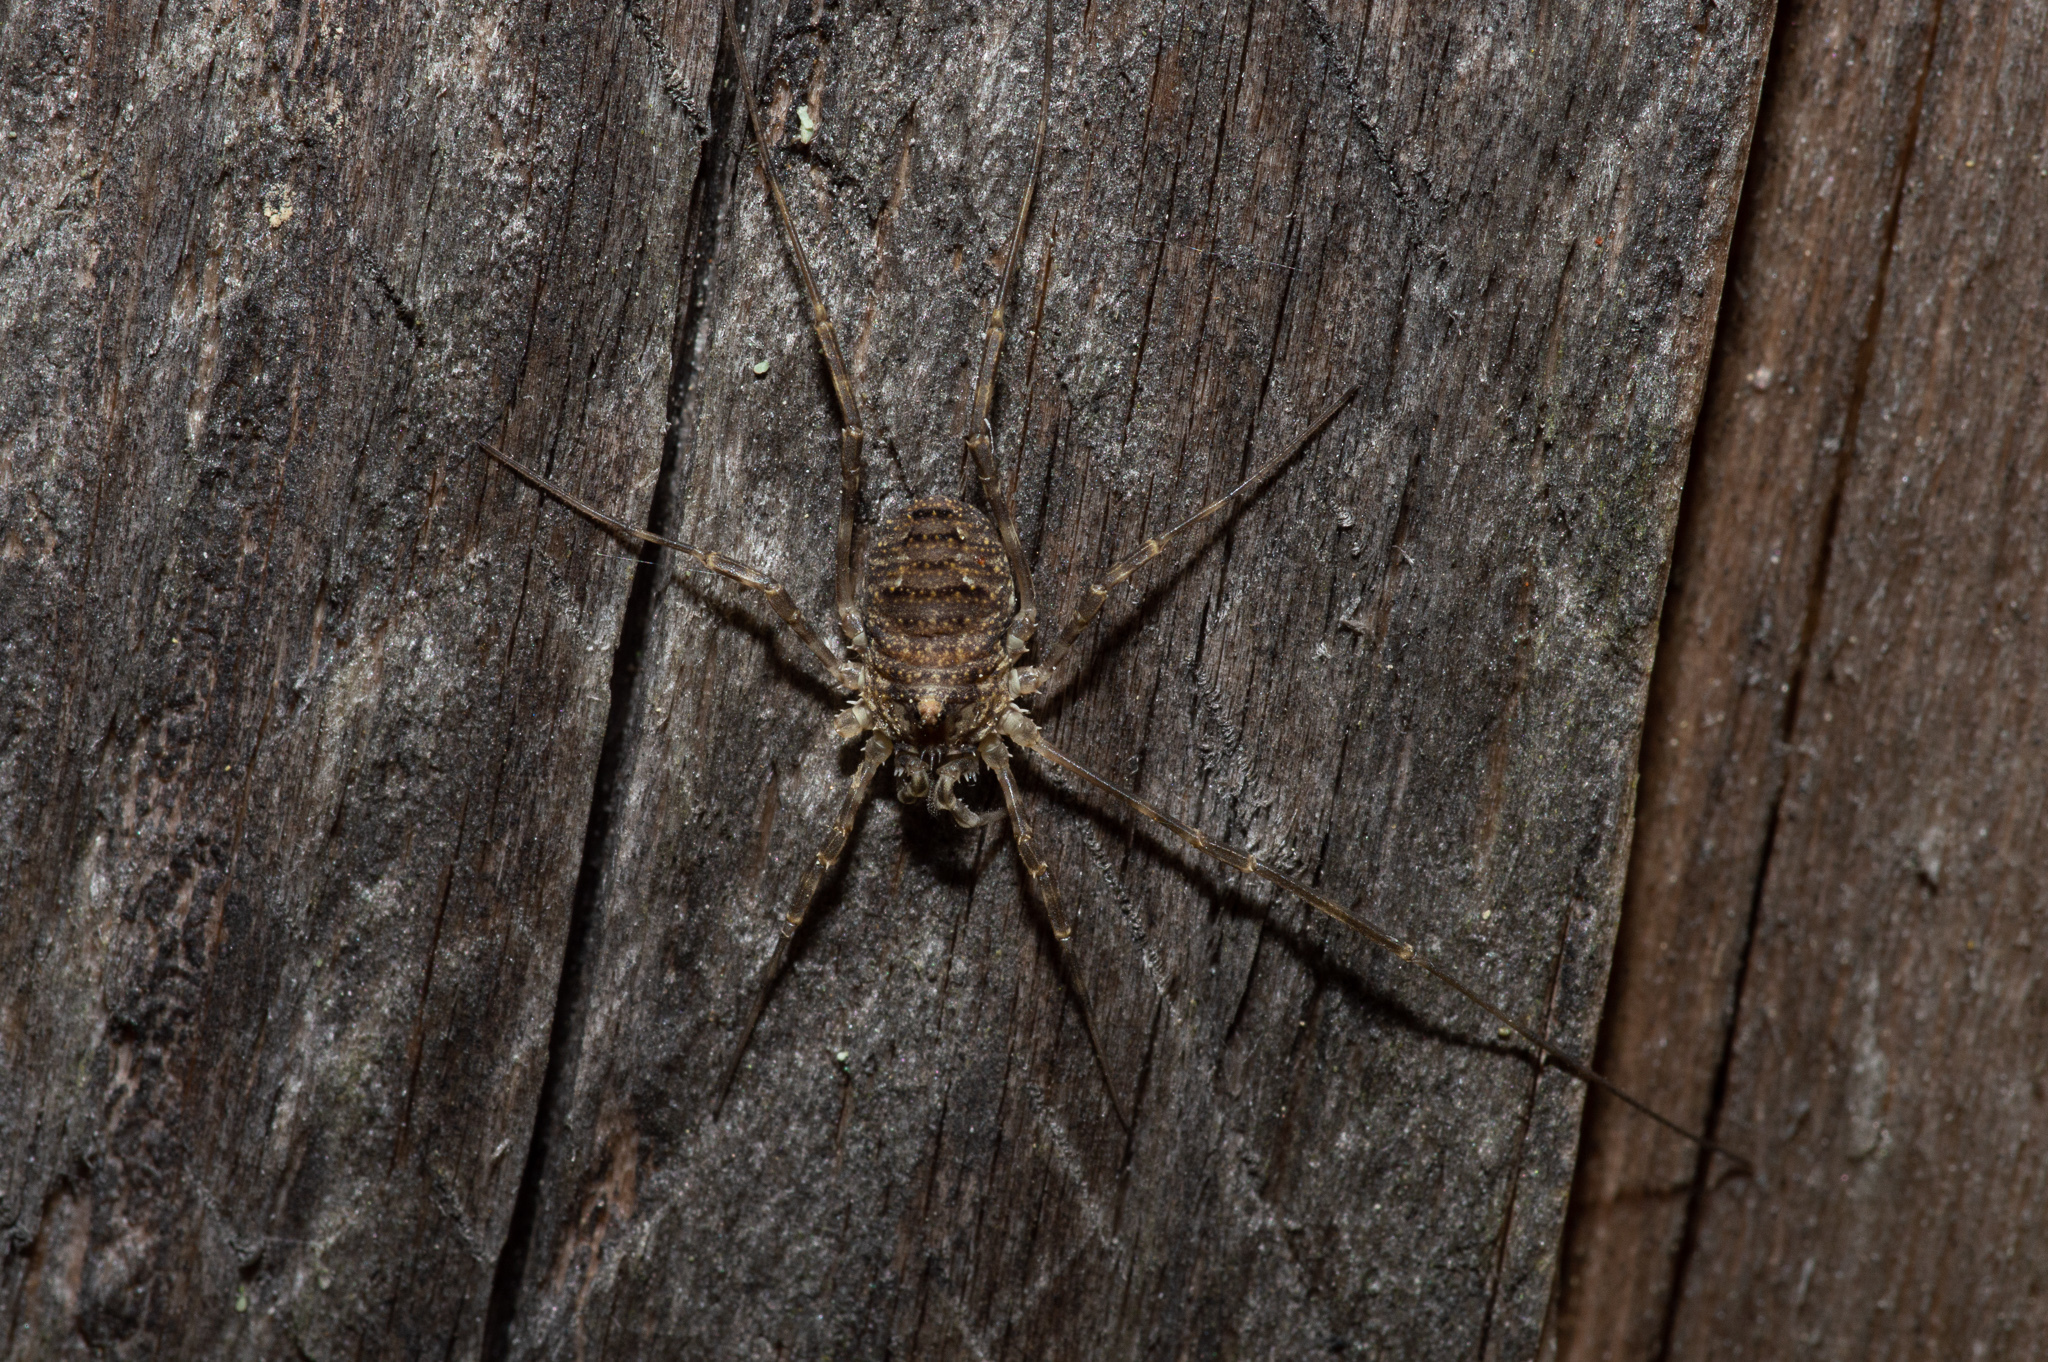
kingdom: Animalia
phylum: Arthropoda
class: Arachnida
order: Opiliones
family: Phalangiidae
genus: Odiellus
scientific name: Odiellus pictus
